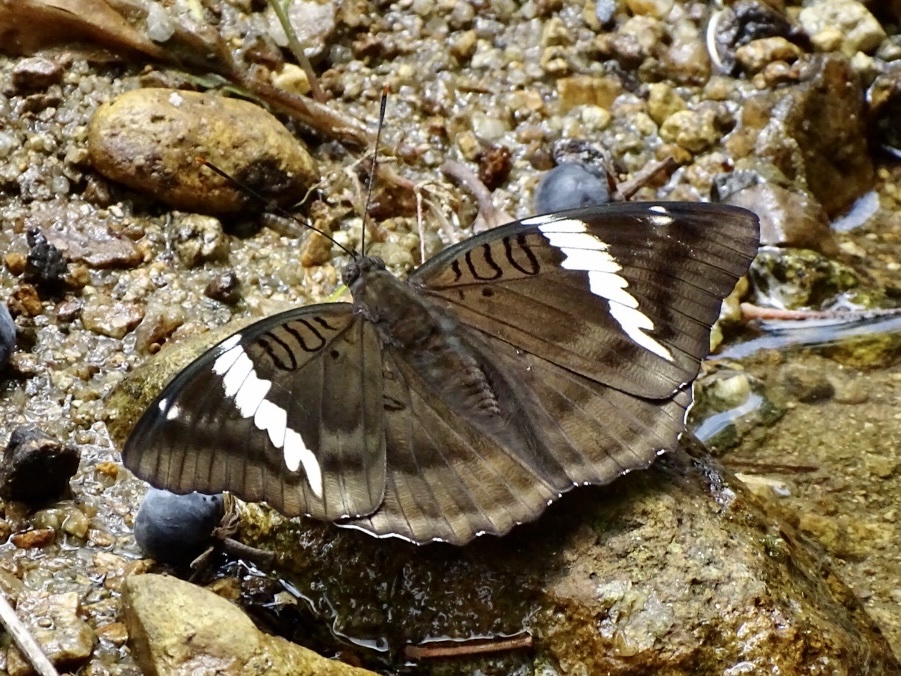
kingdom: Animalia
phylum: Arthropoda
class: Insecta
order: Lepidoptera
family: Nymphalidae
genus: Euthalia
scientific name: Euthalia phemius
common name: White-edged blue baron
